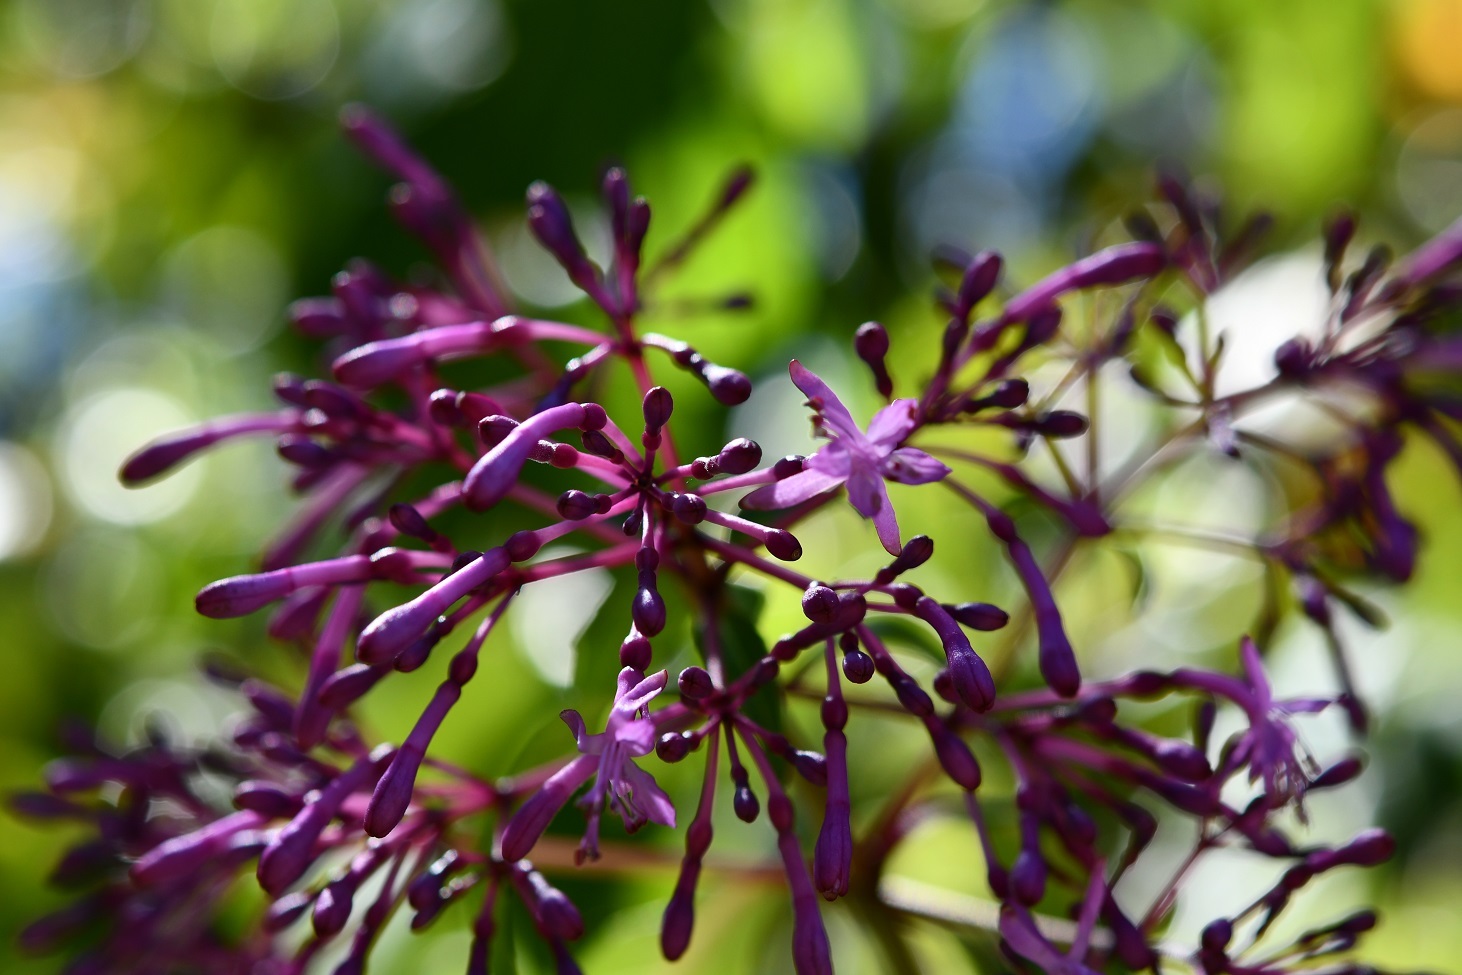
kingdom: Plantae
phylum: Tracheophyta
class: Magnoliopsida
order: Myrtales
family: Onagraceae
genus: Fuchsia
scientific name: Fuchsia paniculata
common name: Shrubby fuchsia
